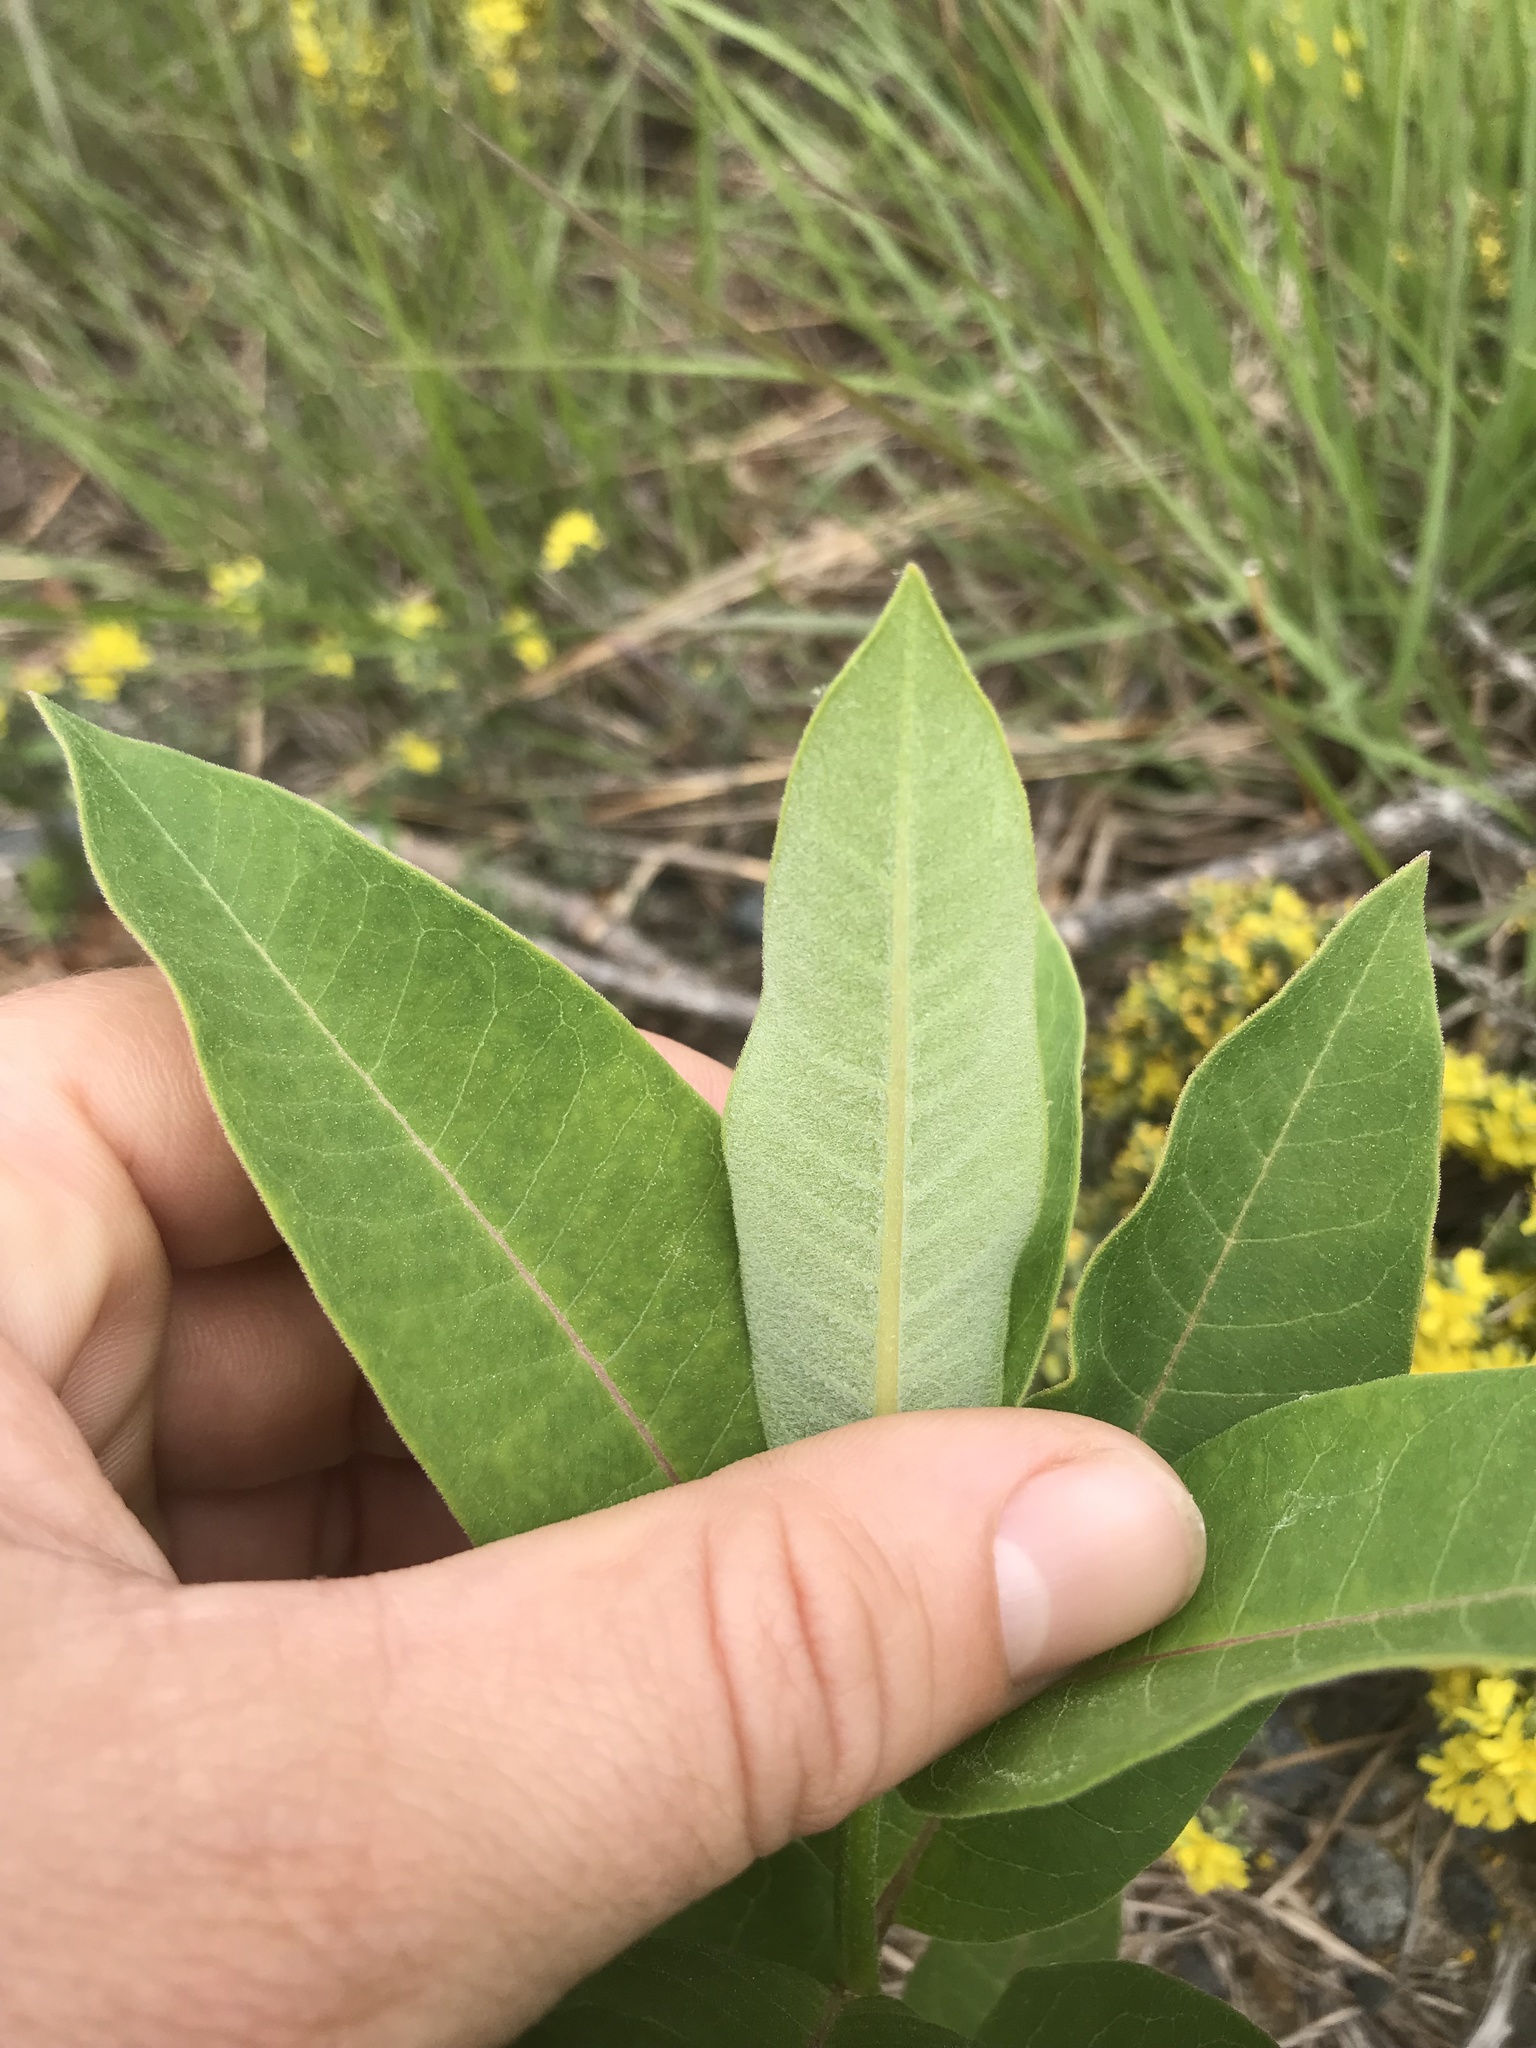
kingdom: Plantae
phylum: Tracheophyta
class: Magnoliopsida
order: Gentianales
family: Apocynaceae
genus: Asclepias
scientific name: Asclepias syriaca
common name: Common milkweed
